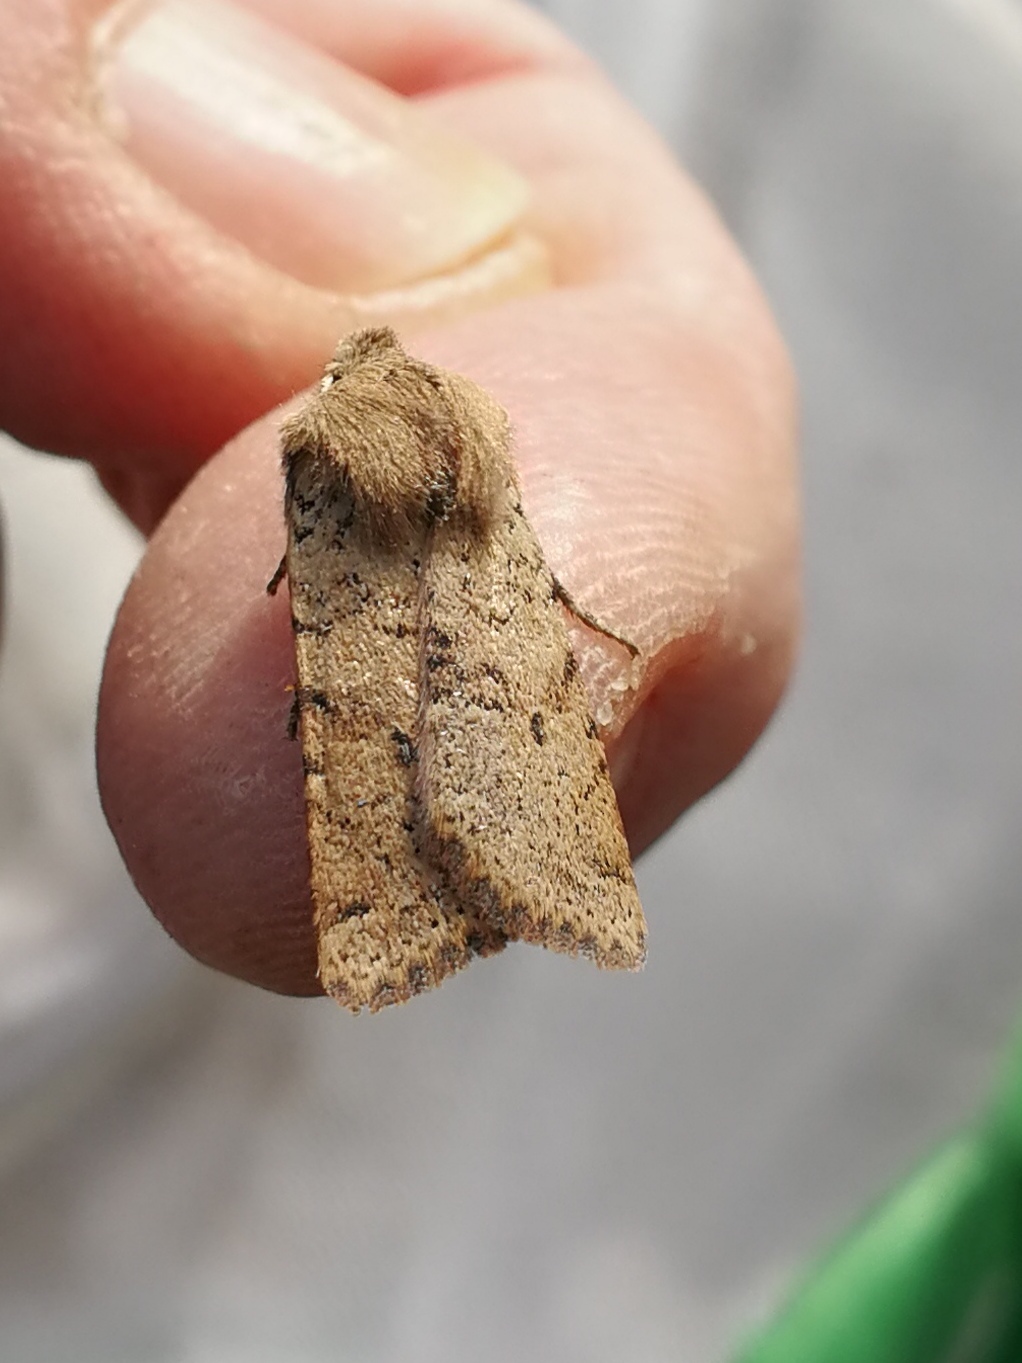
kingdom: Animalia
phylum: Arthropoda
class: Insecta
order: Lepidoptera
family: Noctuidae
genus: Agrochola
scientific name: Agrochola ruticilla
